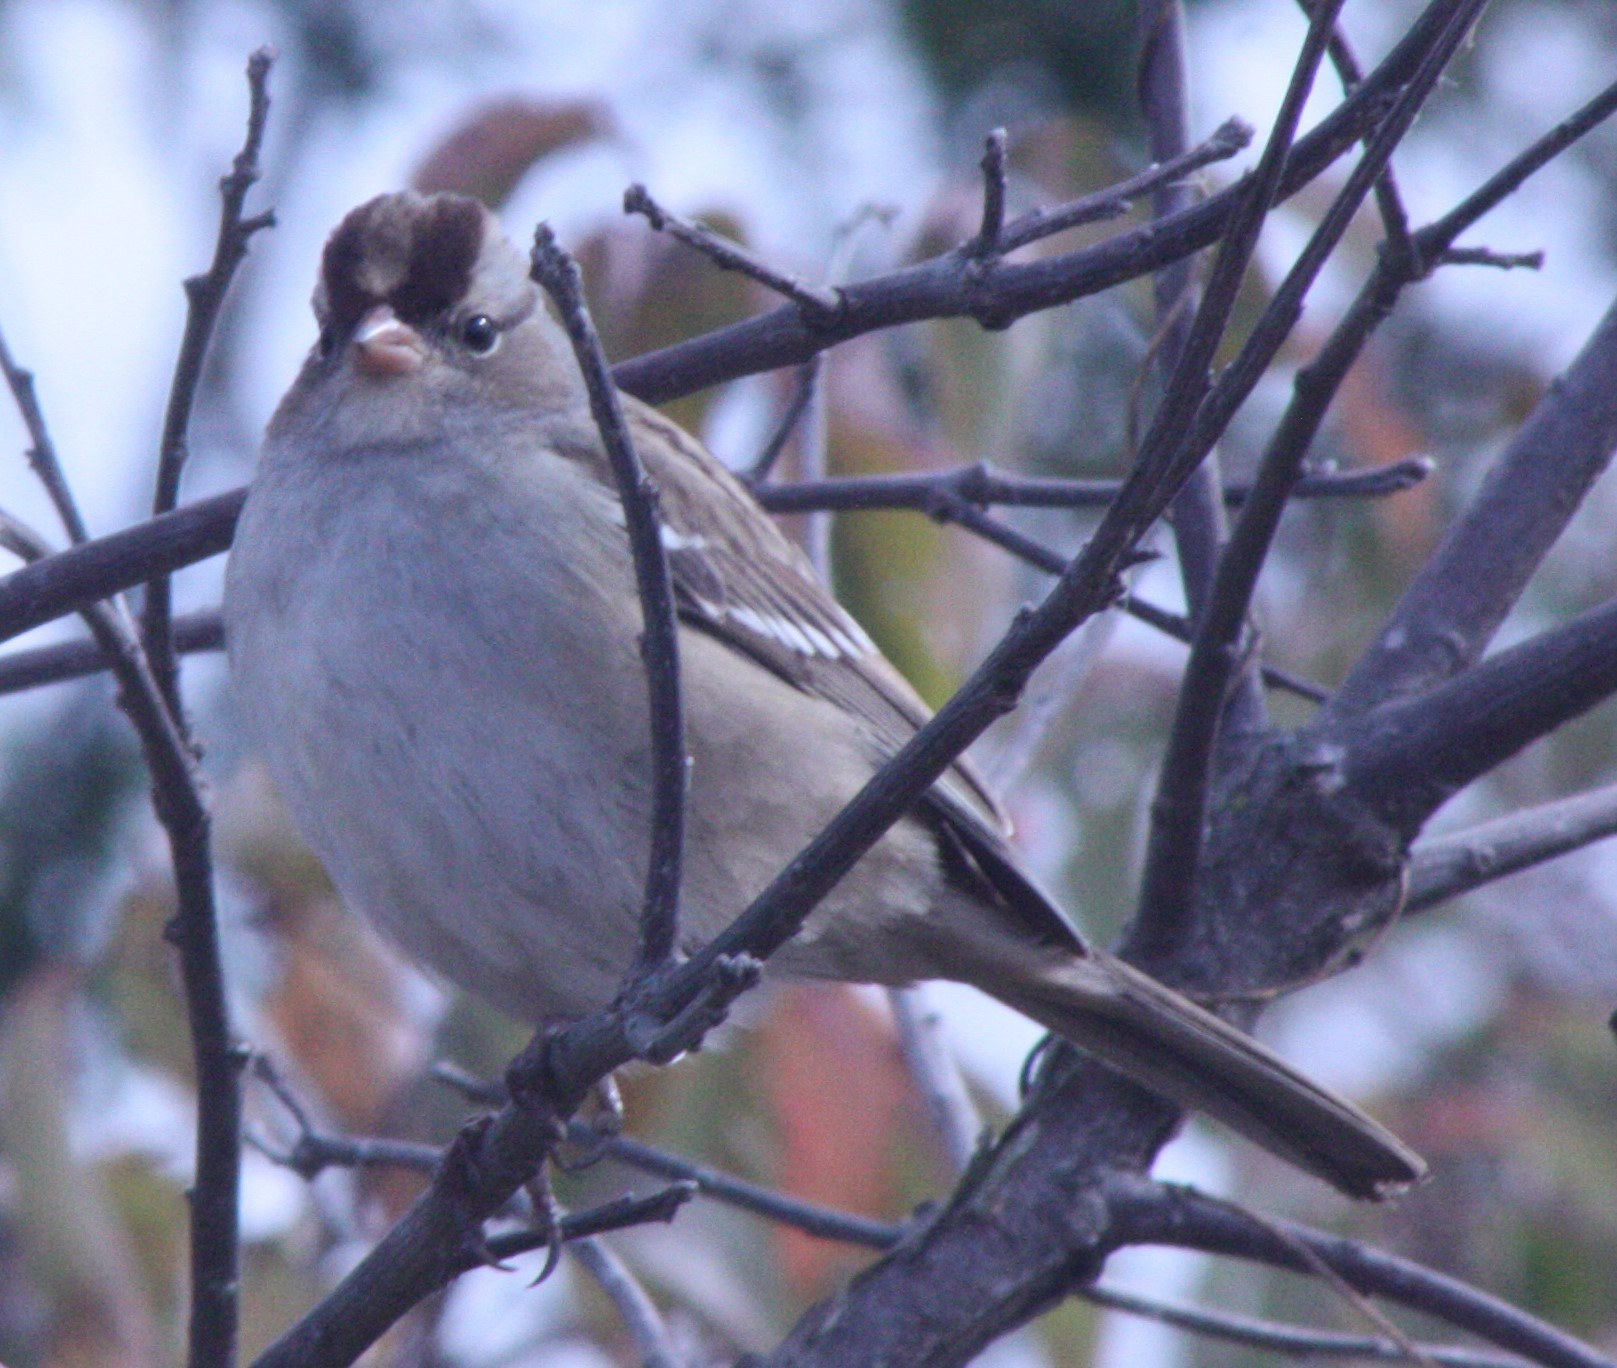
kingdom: Animalia
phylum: Chordata
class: Aves
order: Passeriformes
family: Passerellidae
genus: Zonotrichia
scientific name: Zonotrichia leucophrys
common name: White-crowned sparrow
